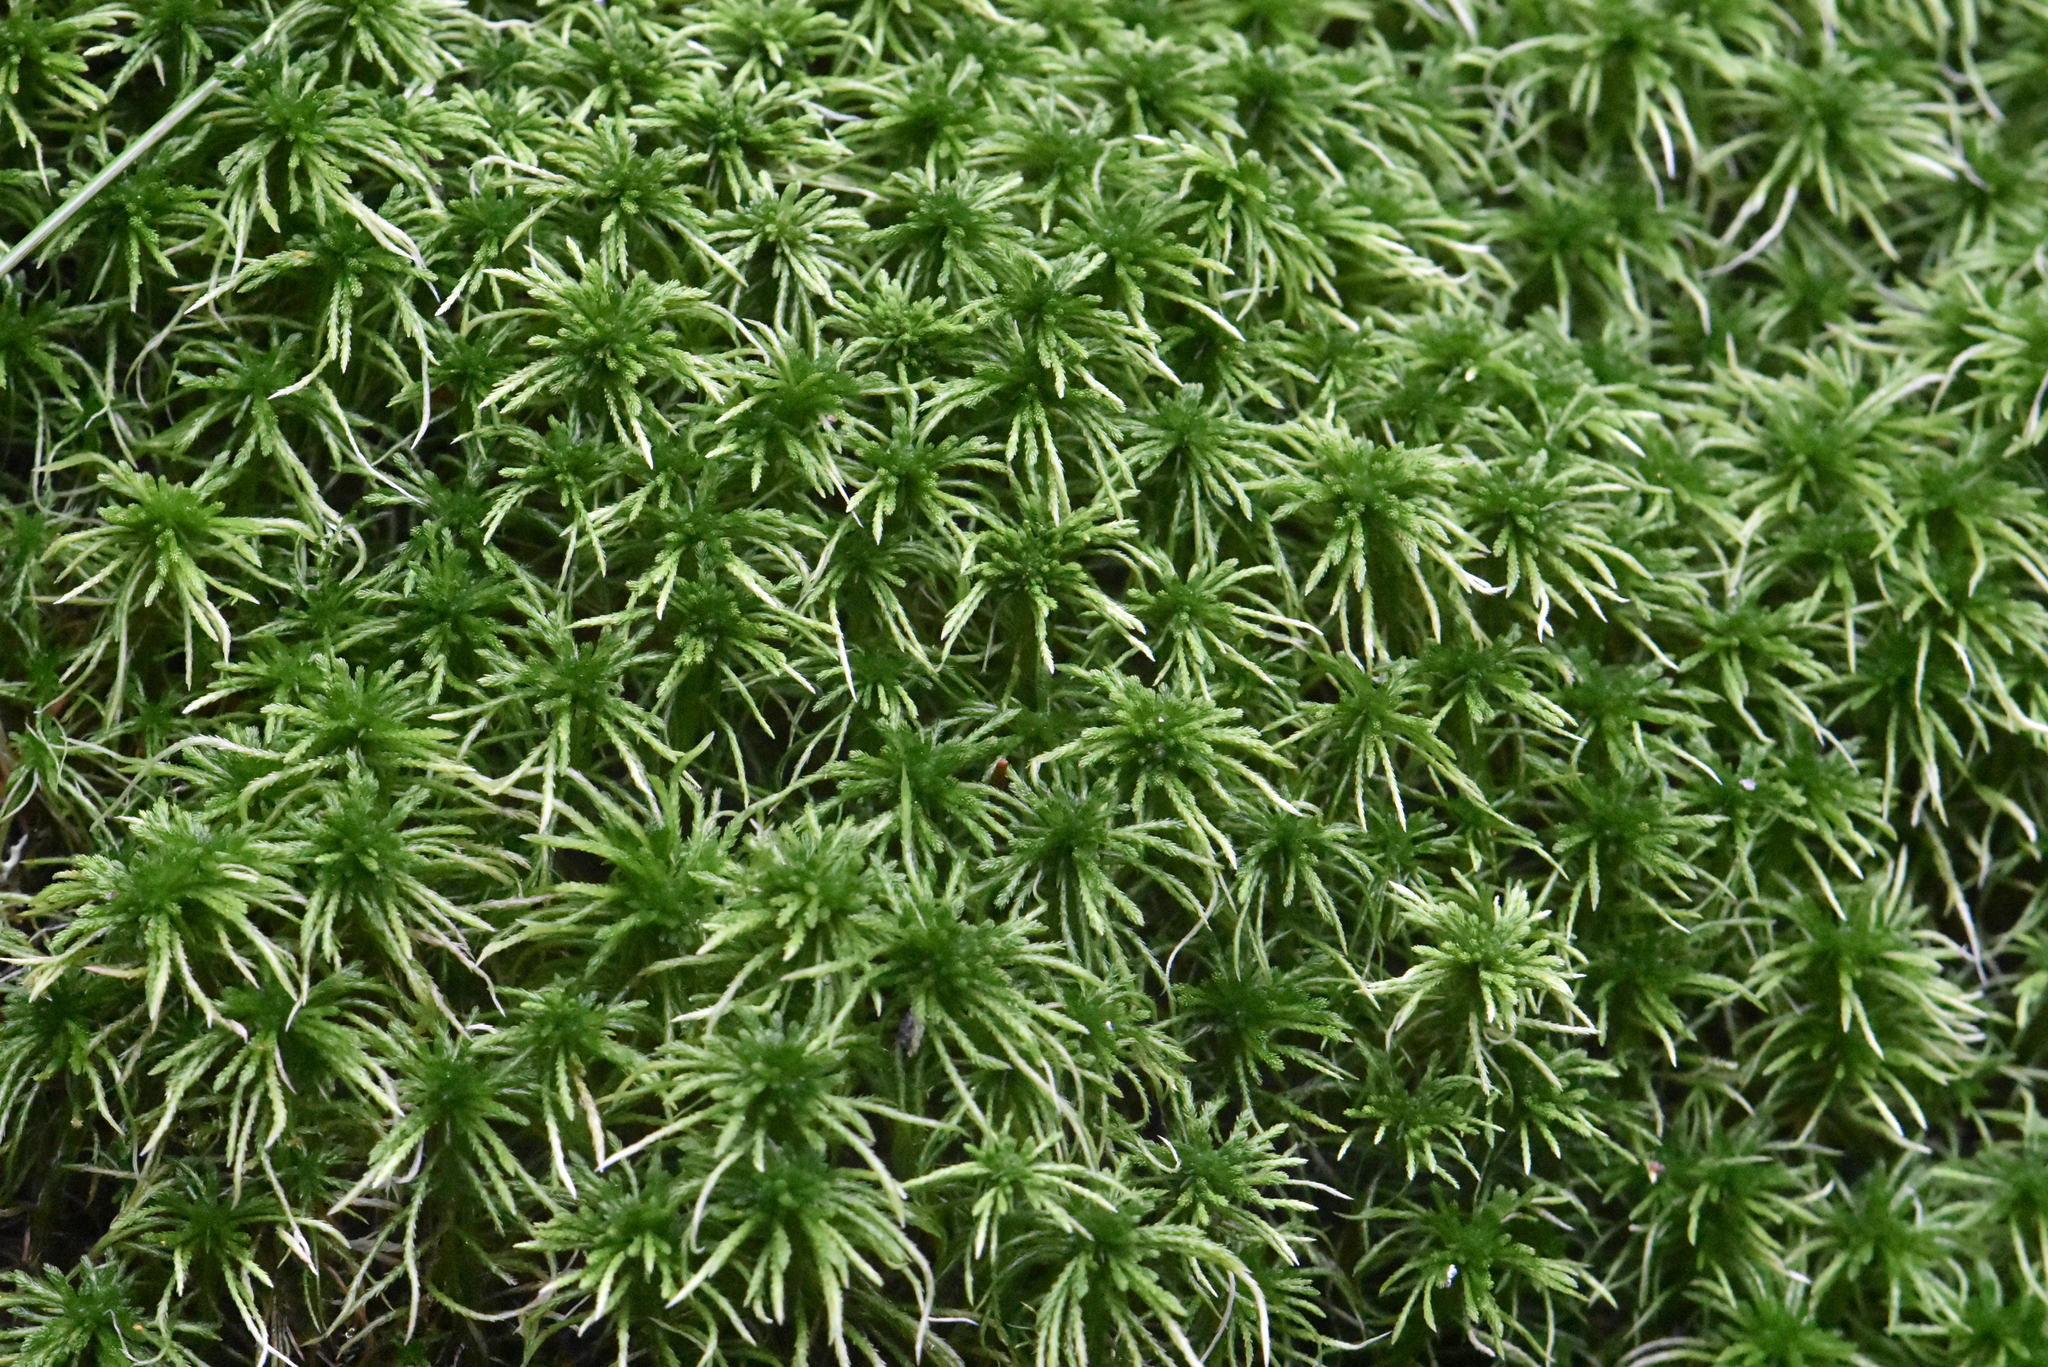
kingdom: Plantae
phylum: Bryophyta
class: Sphagnopsida
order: Sphagnales
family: Sphagnaceae
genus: Sphagnum
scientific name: Sphagnum girgensohnii
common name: Girgensohn's peat moss
